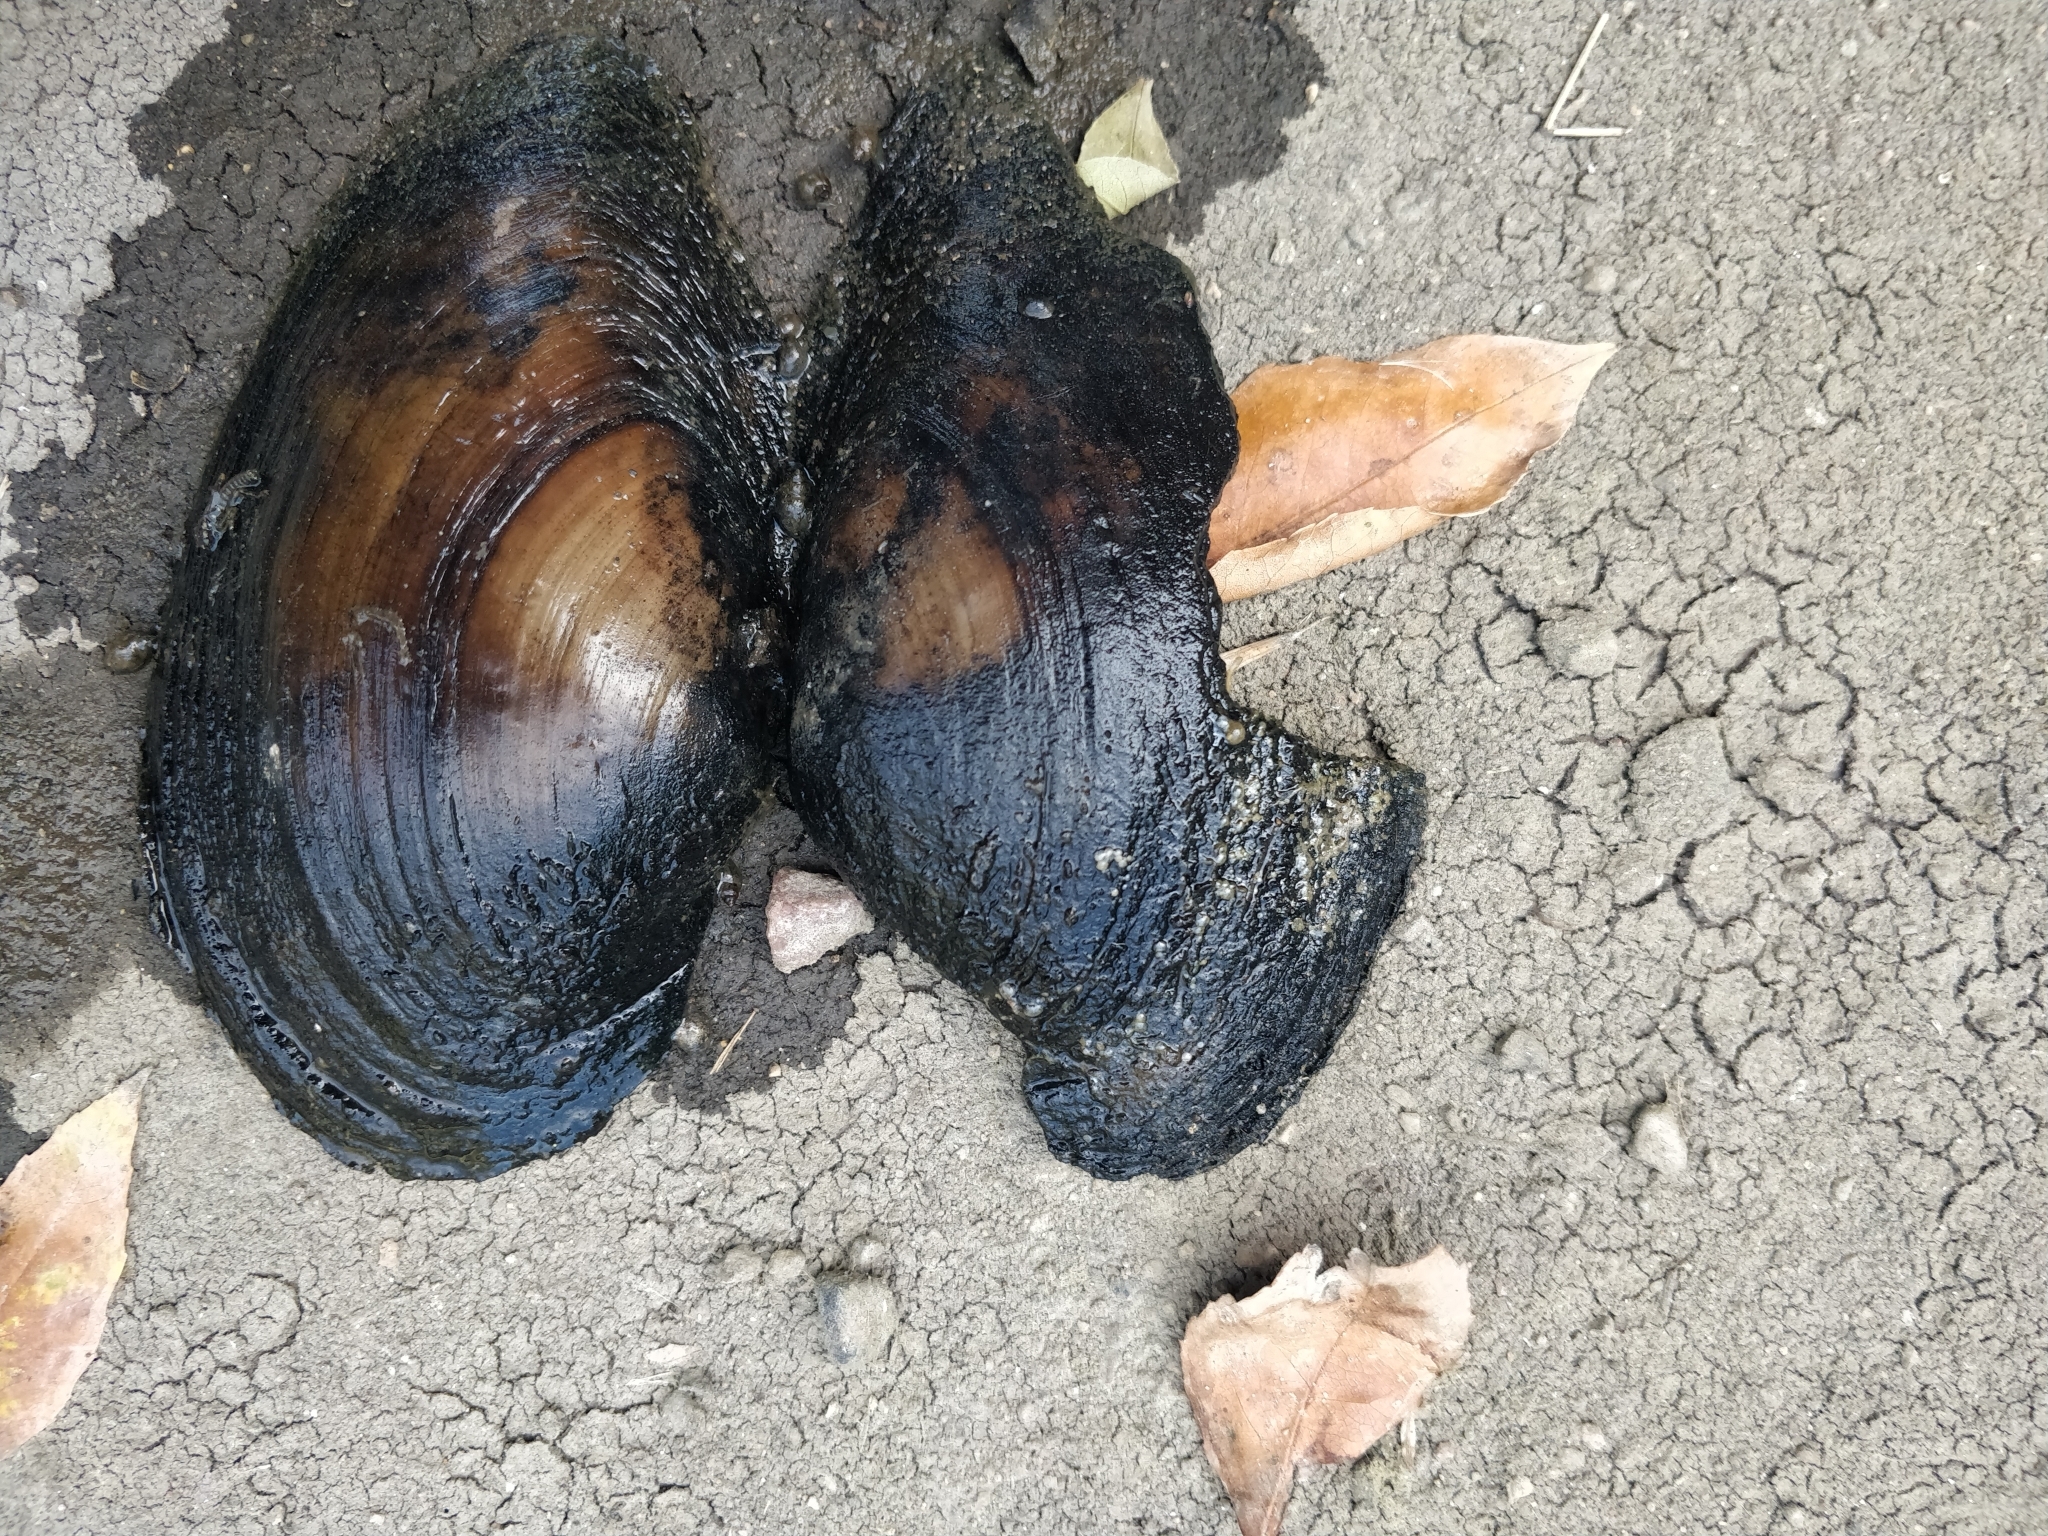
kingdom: Animalia
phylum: Mollusca
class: Bivalvia
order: Unionida
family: Unionidae
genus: Pyganodon
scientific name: Pyganodon grandis
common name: Giant floater
